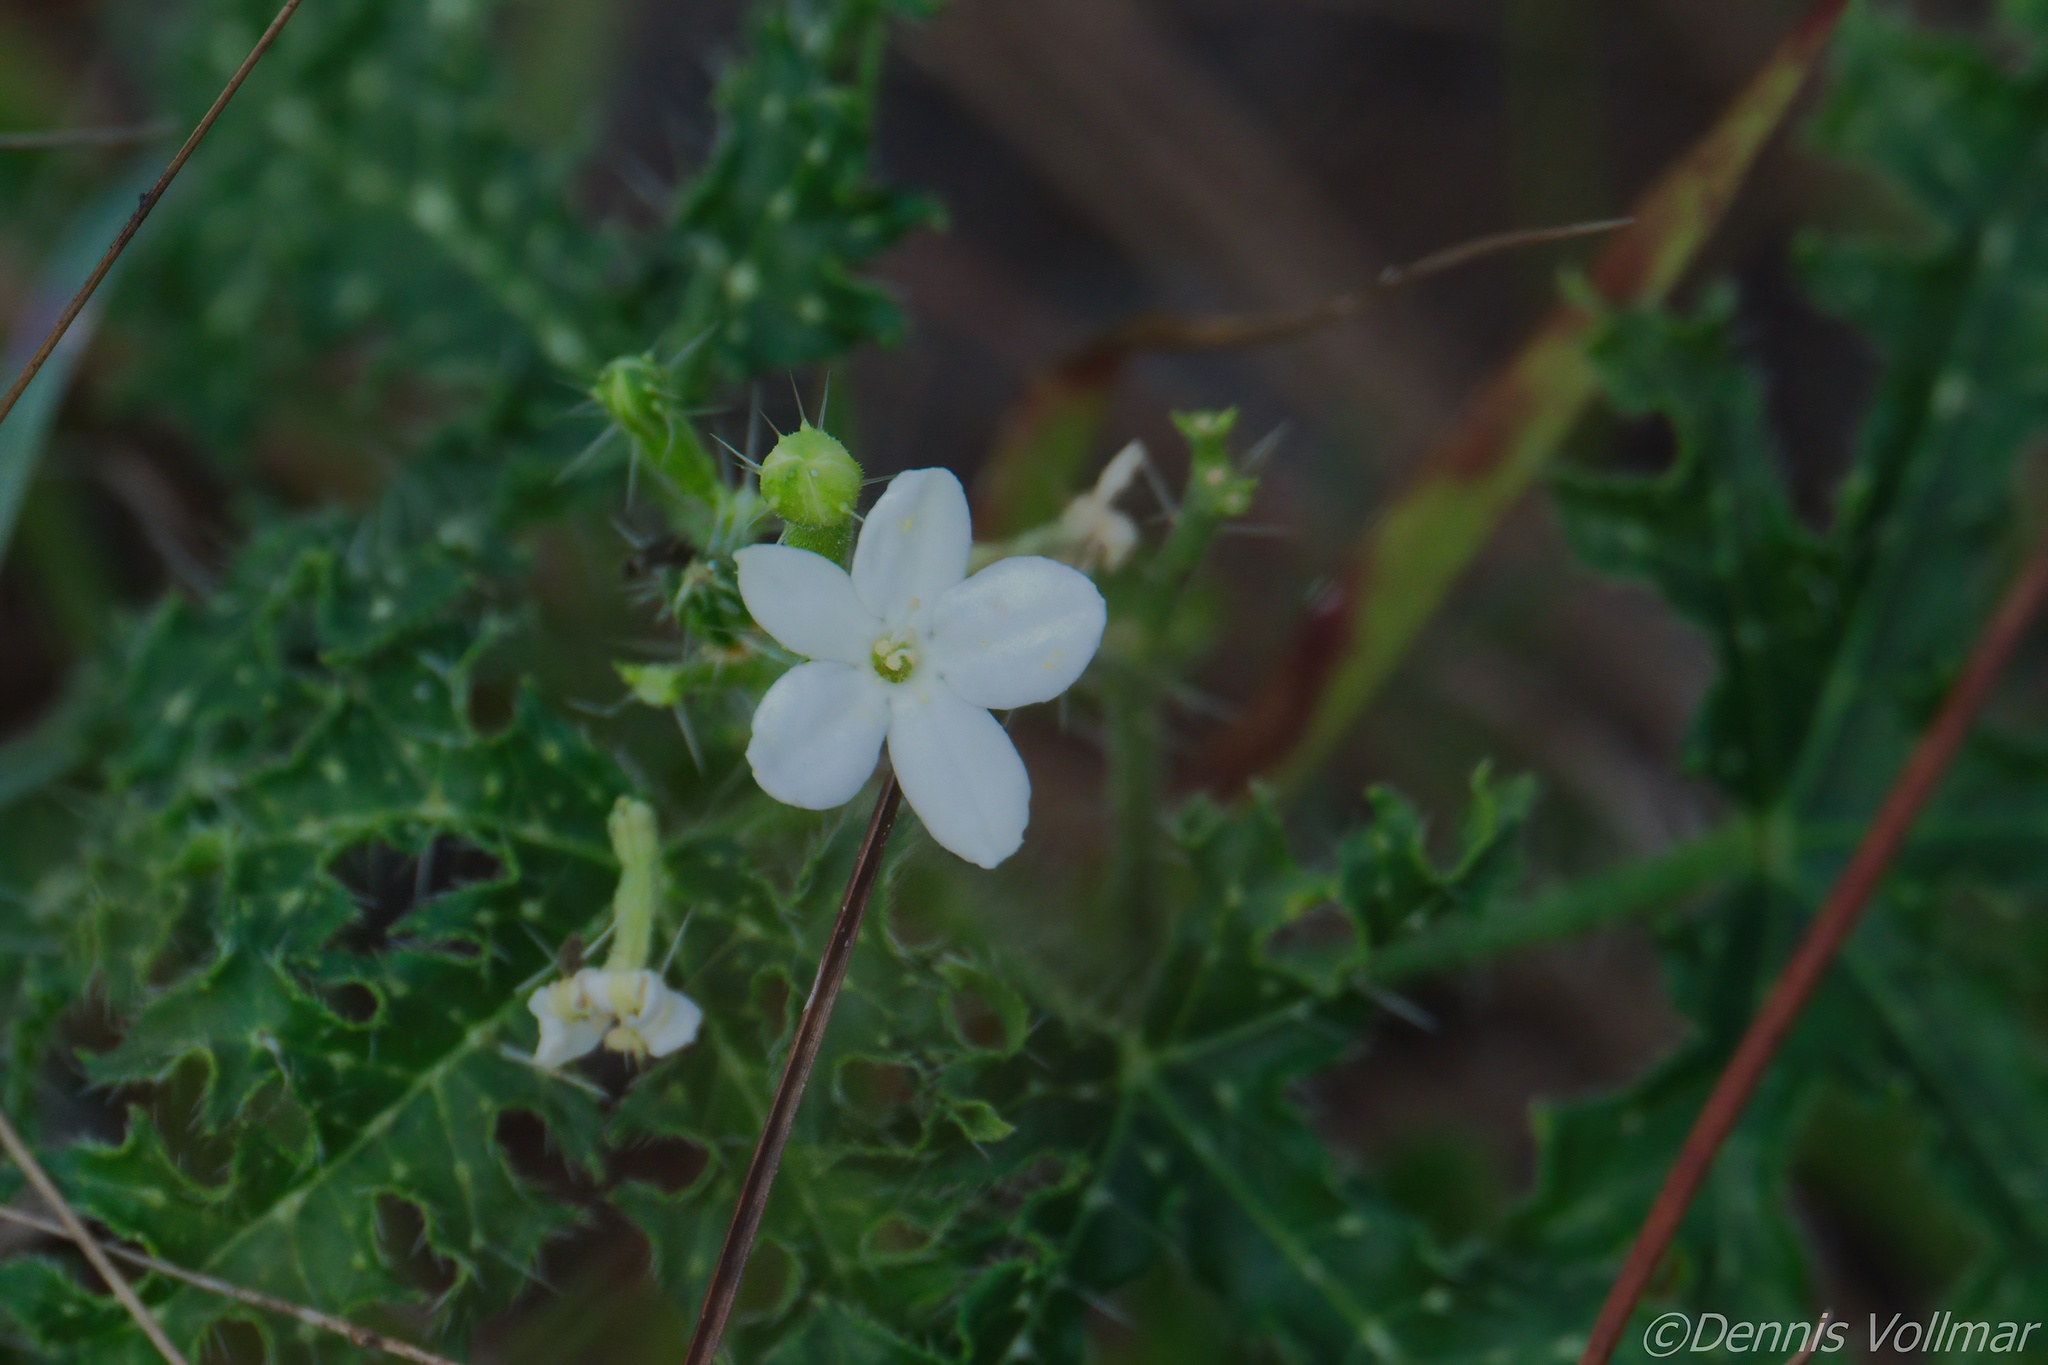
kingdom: Plantae
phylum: Tracheophyta
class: Magnoliopsida
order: Malpighiales
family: Euphorbiaceae
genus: Cnidoscolus
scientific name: Cnidoscolus stimulosus
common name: Bull-nettle
